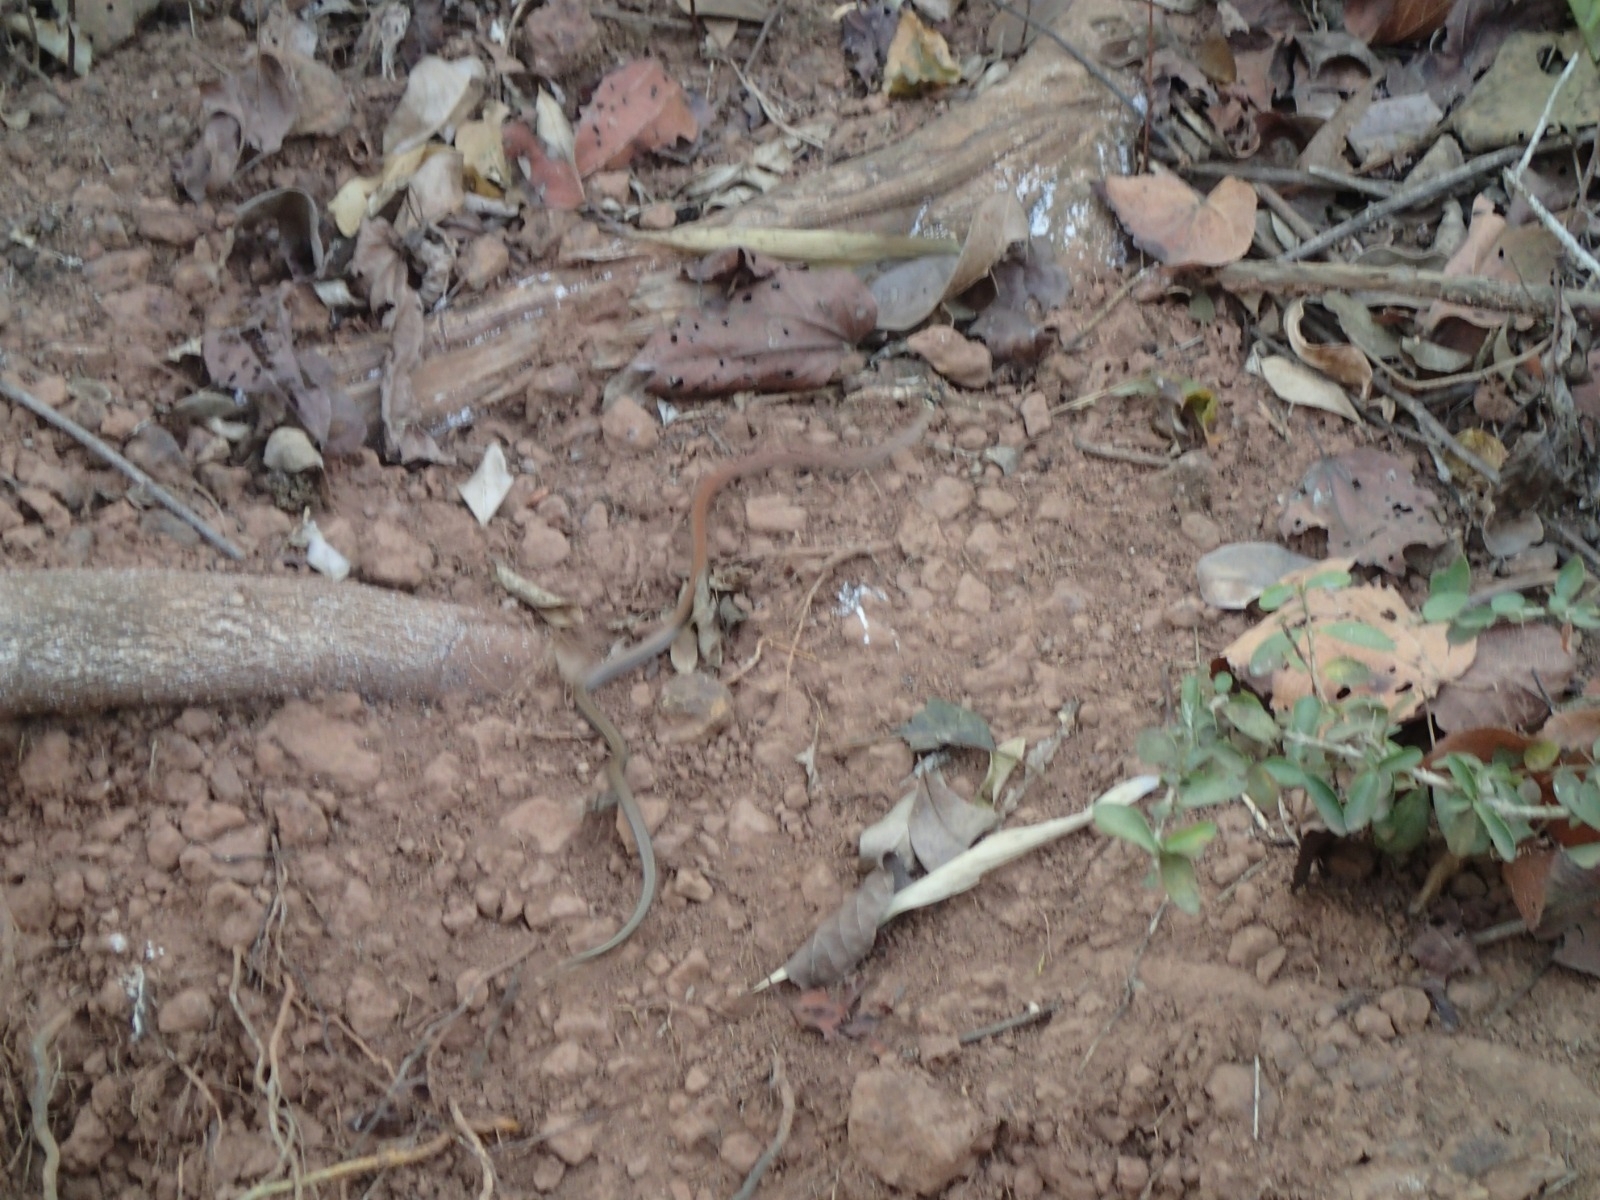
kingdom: Animalia
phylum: Chordata
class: Squamata
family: Colubridae
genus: Sibynophis
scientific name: Sibynophis subpunctatus
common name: Black-headed snake
